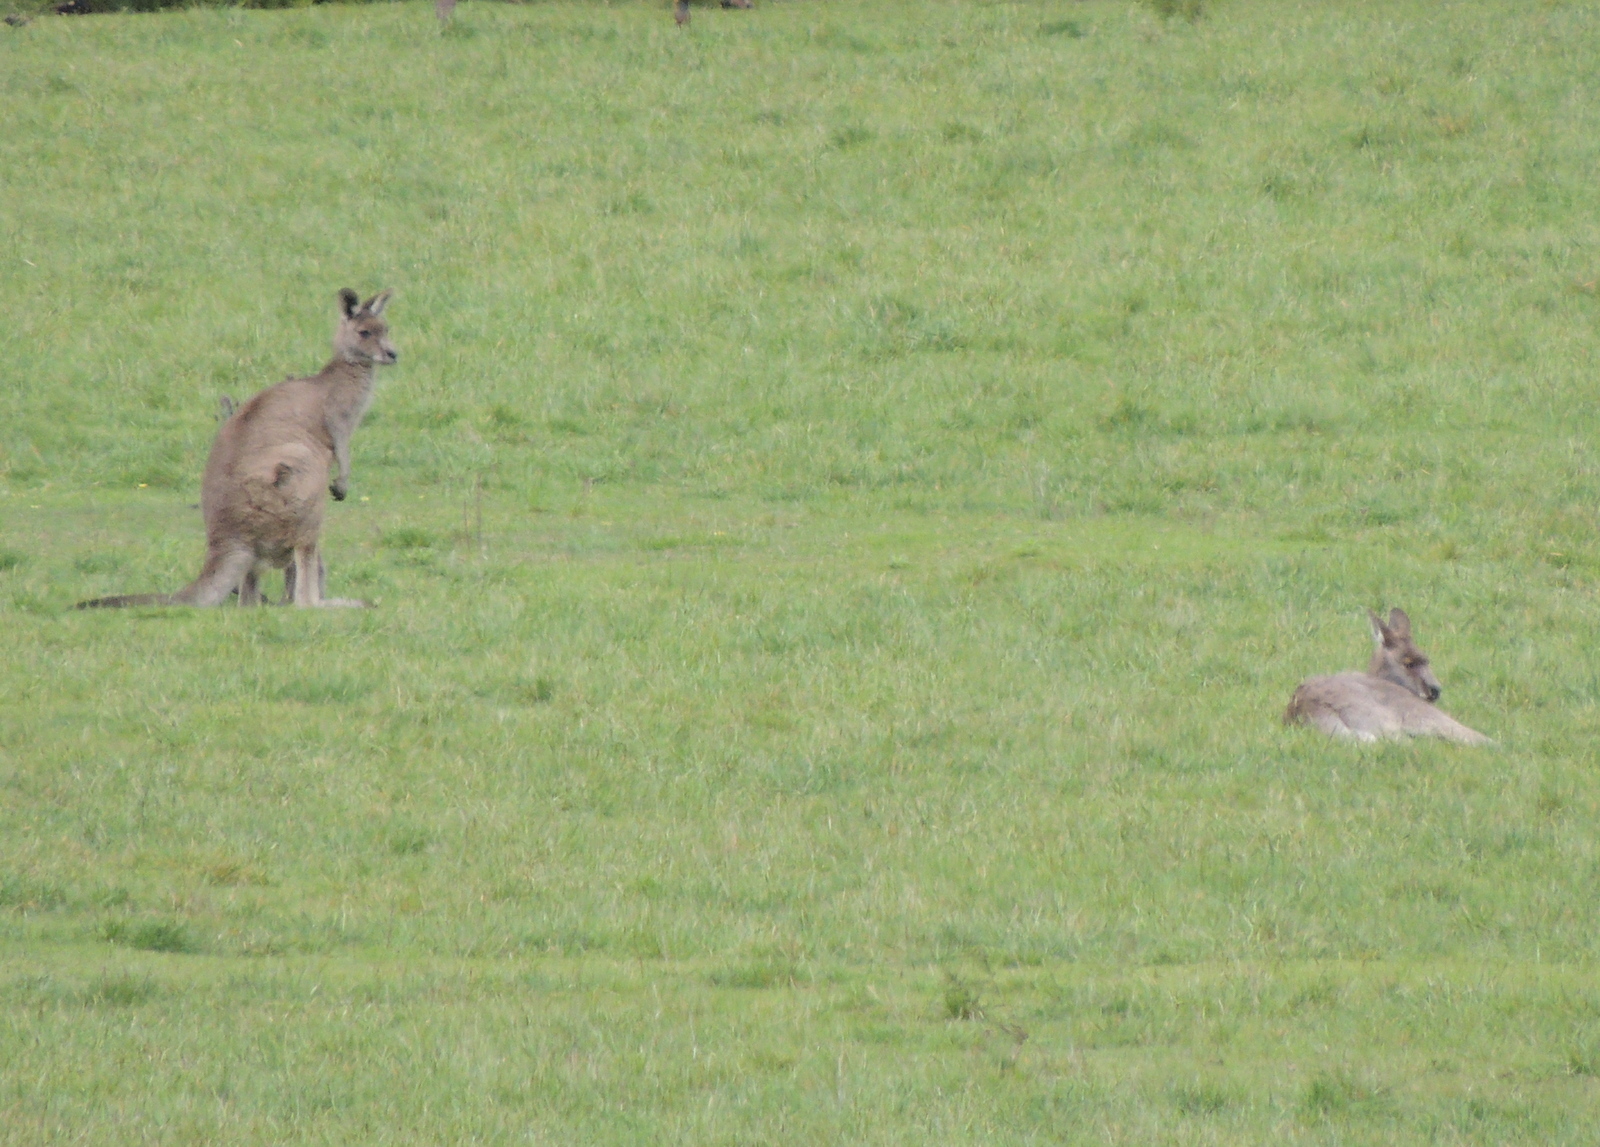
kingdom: Animalia
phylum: Chordata
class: Mammalia
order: Diprotodontia
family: Macropodidae
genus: Macropus
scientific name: Macropus giganteus
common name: Eastern grey kangaroo
